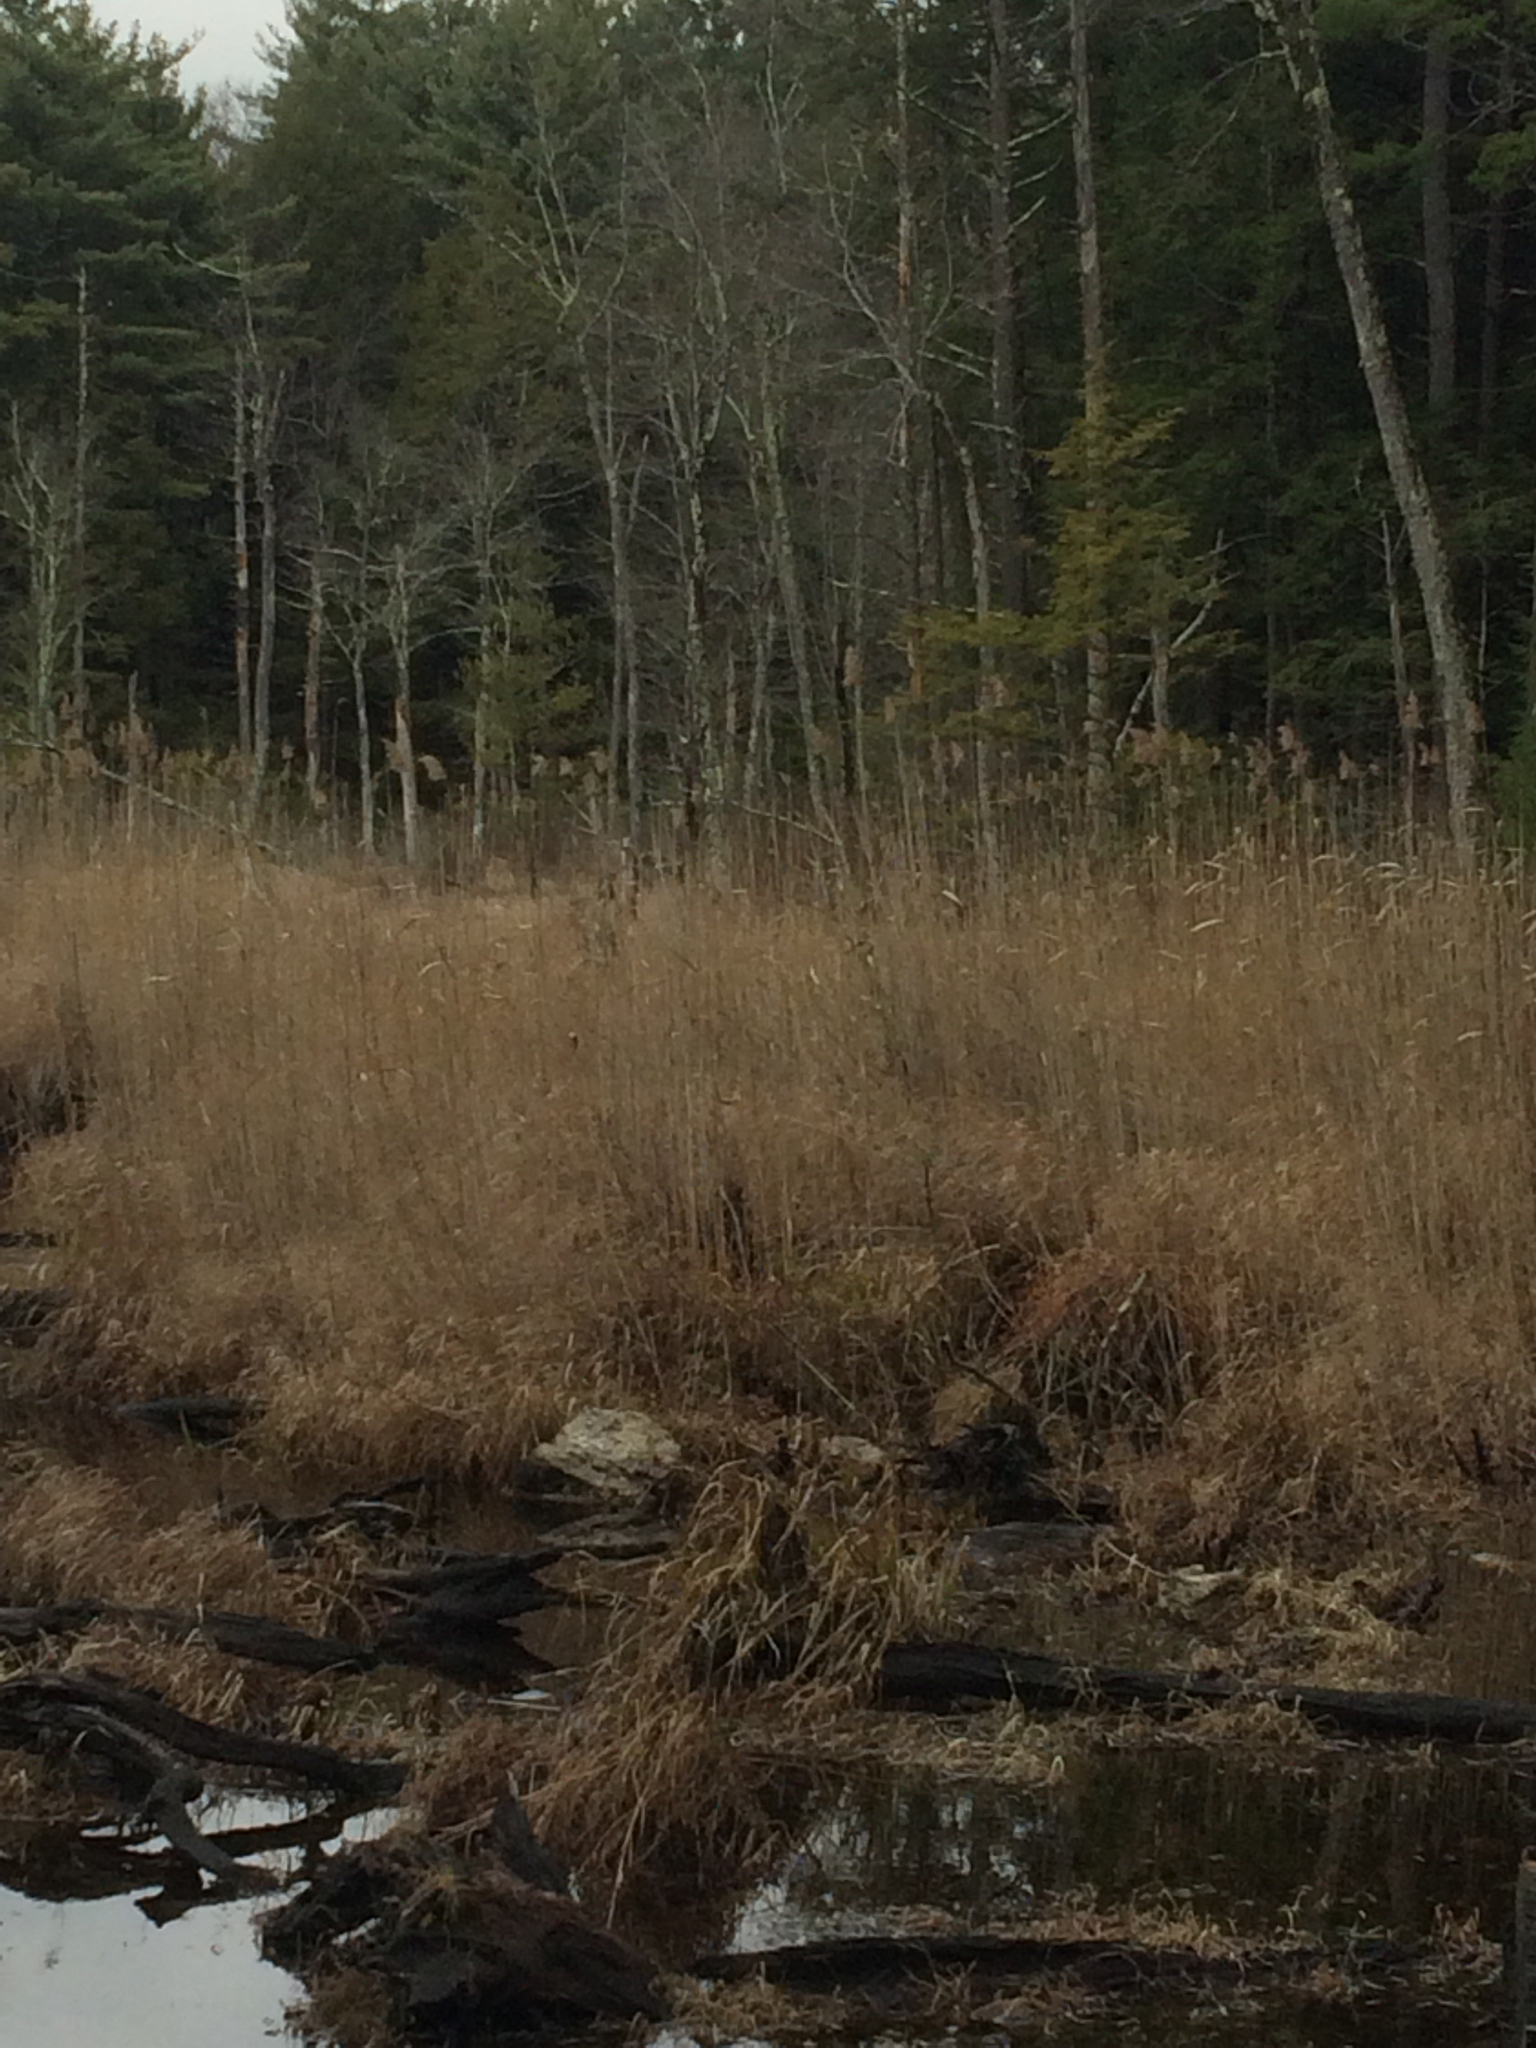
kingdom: Plantae
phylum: Tracheophyta
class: Liliopsida
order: Poales
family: Poaceae
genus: Phragmites
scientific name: Phragmites australis
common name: Common reed
